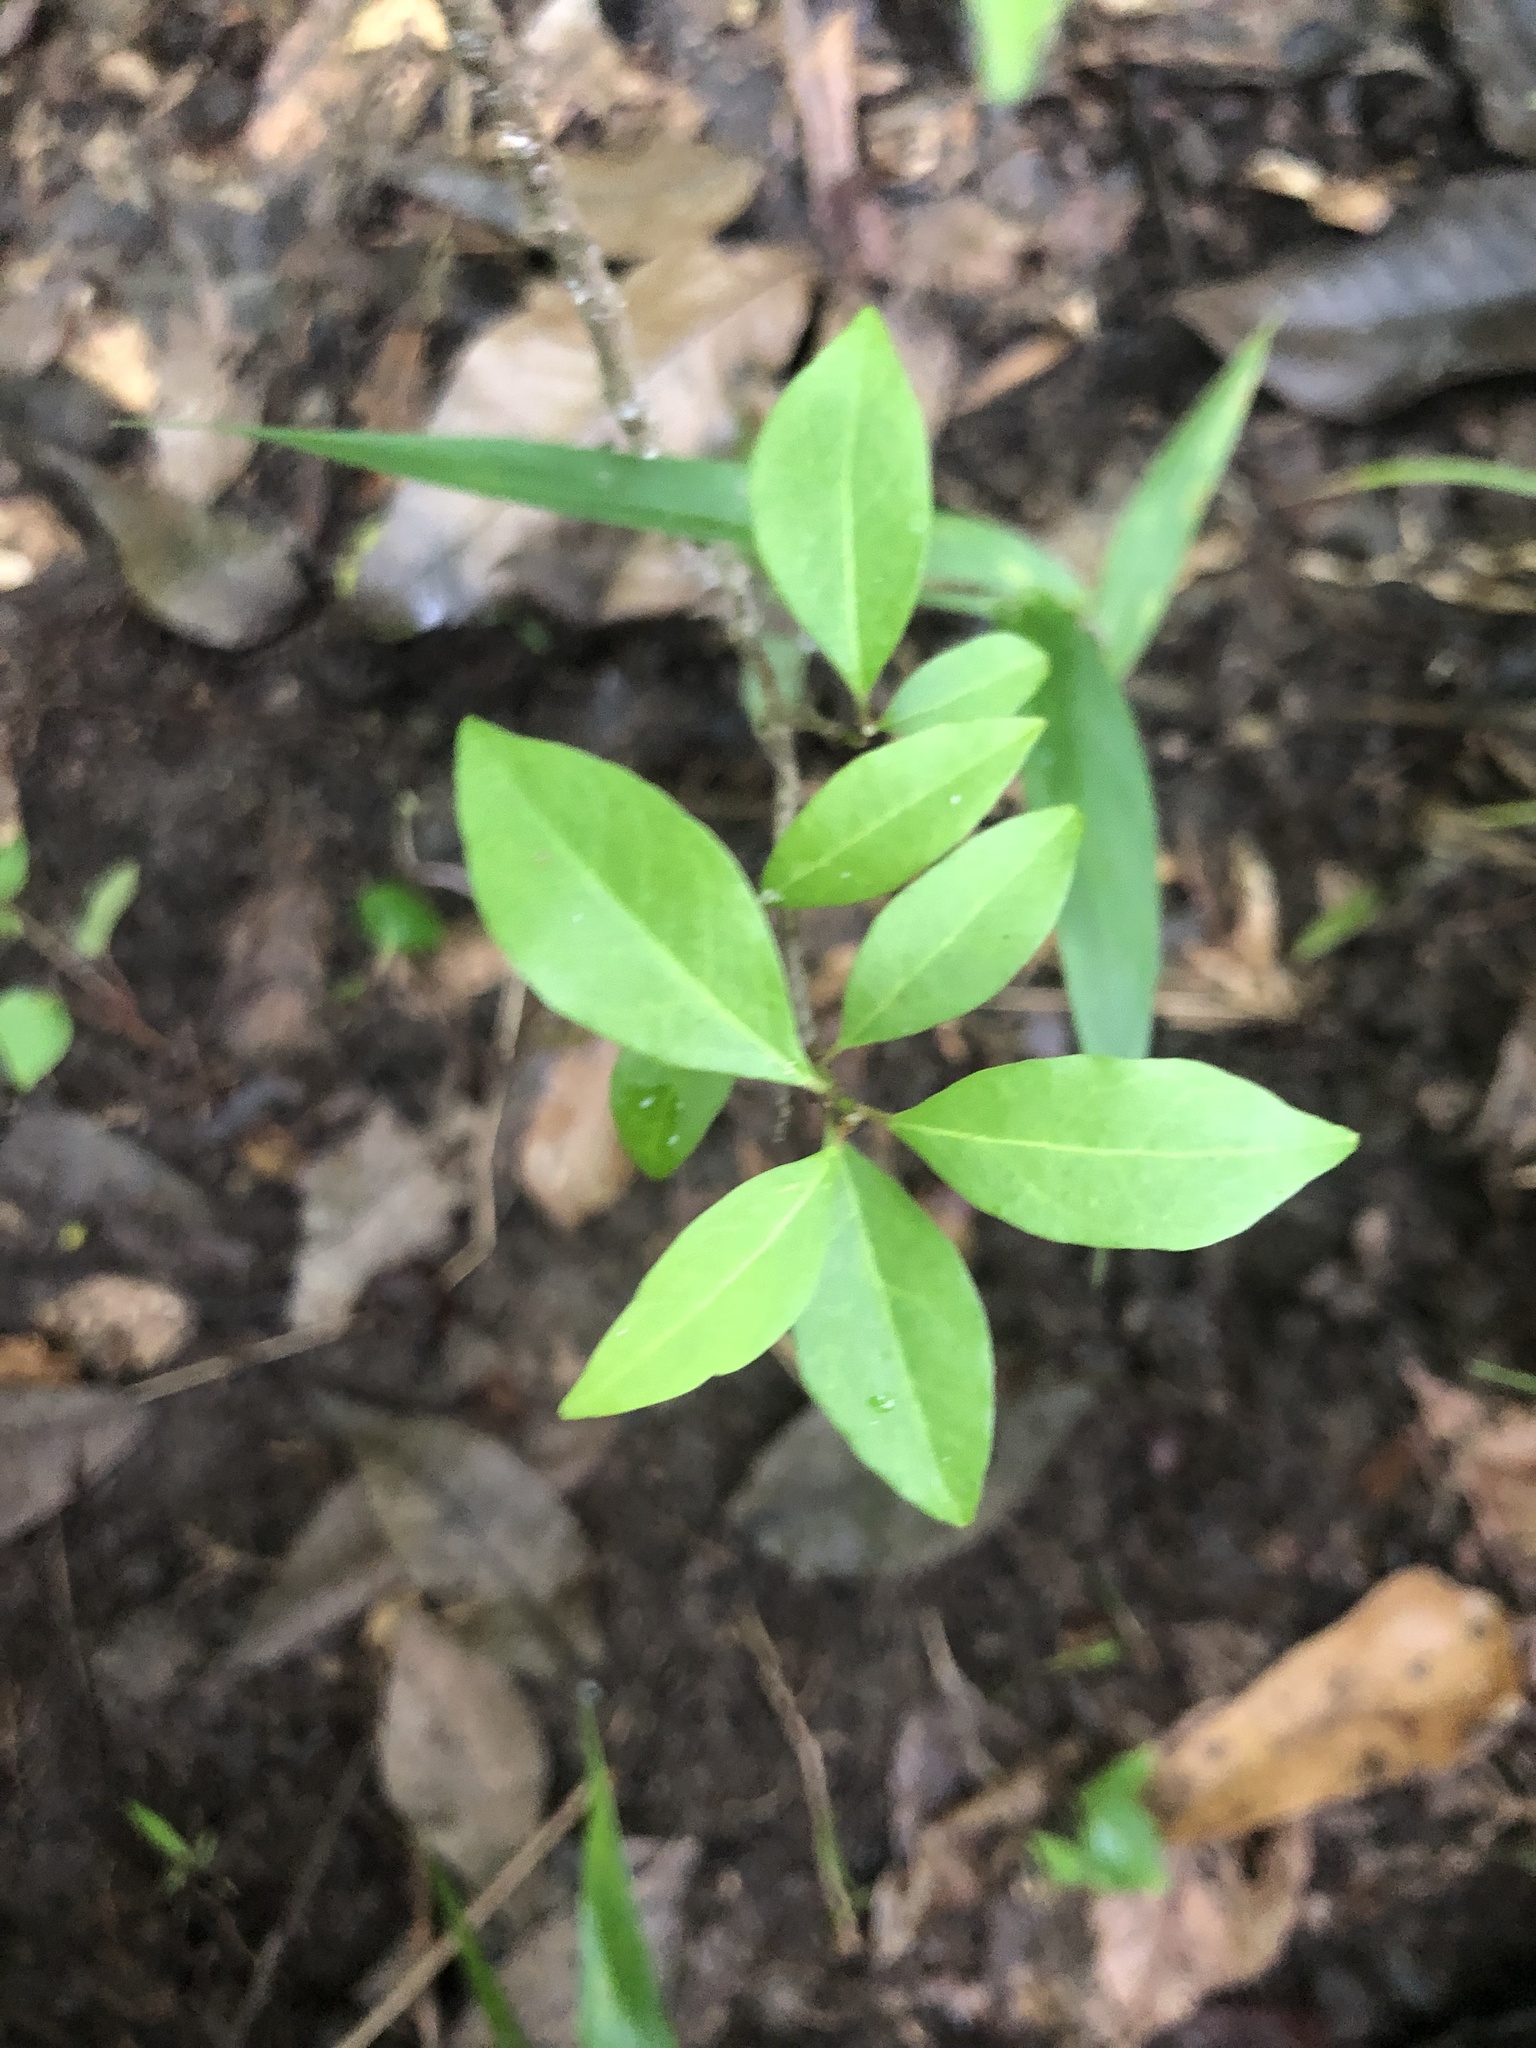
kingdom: Plantae
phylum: Tracheophyta
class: Magnoliopsida
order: Lamiales
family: Oleaceae
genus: Forestiera
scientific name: Forestiera acuminata
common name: Swamp-privet
